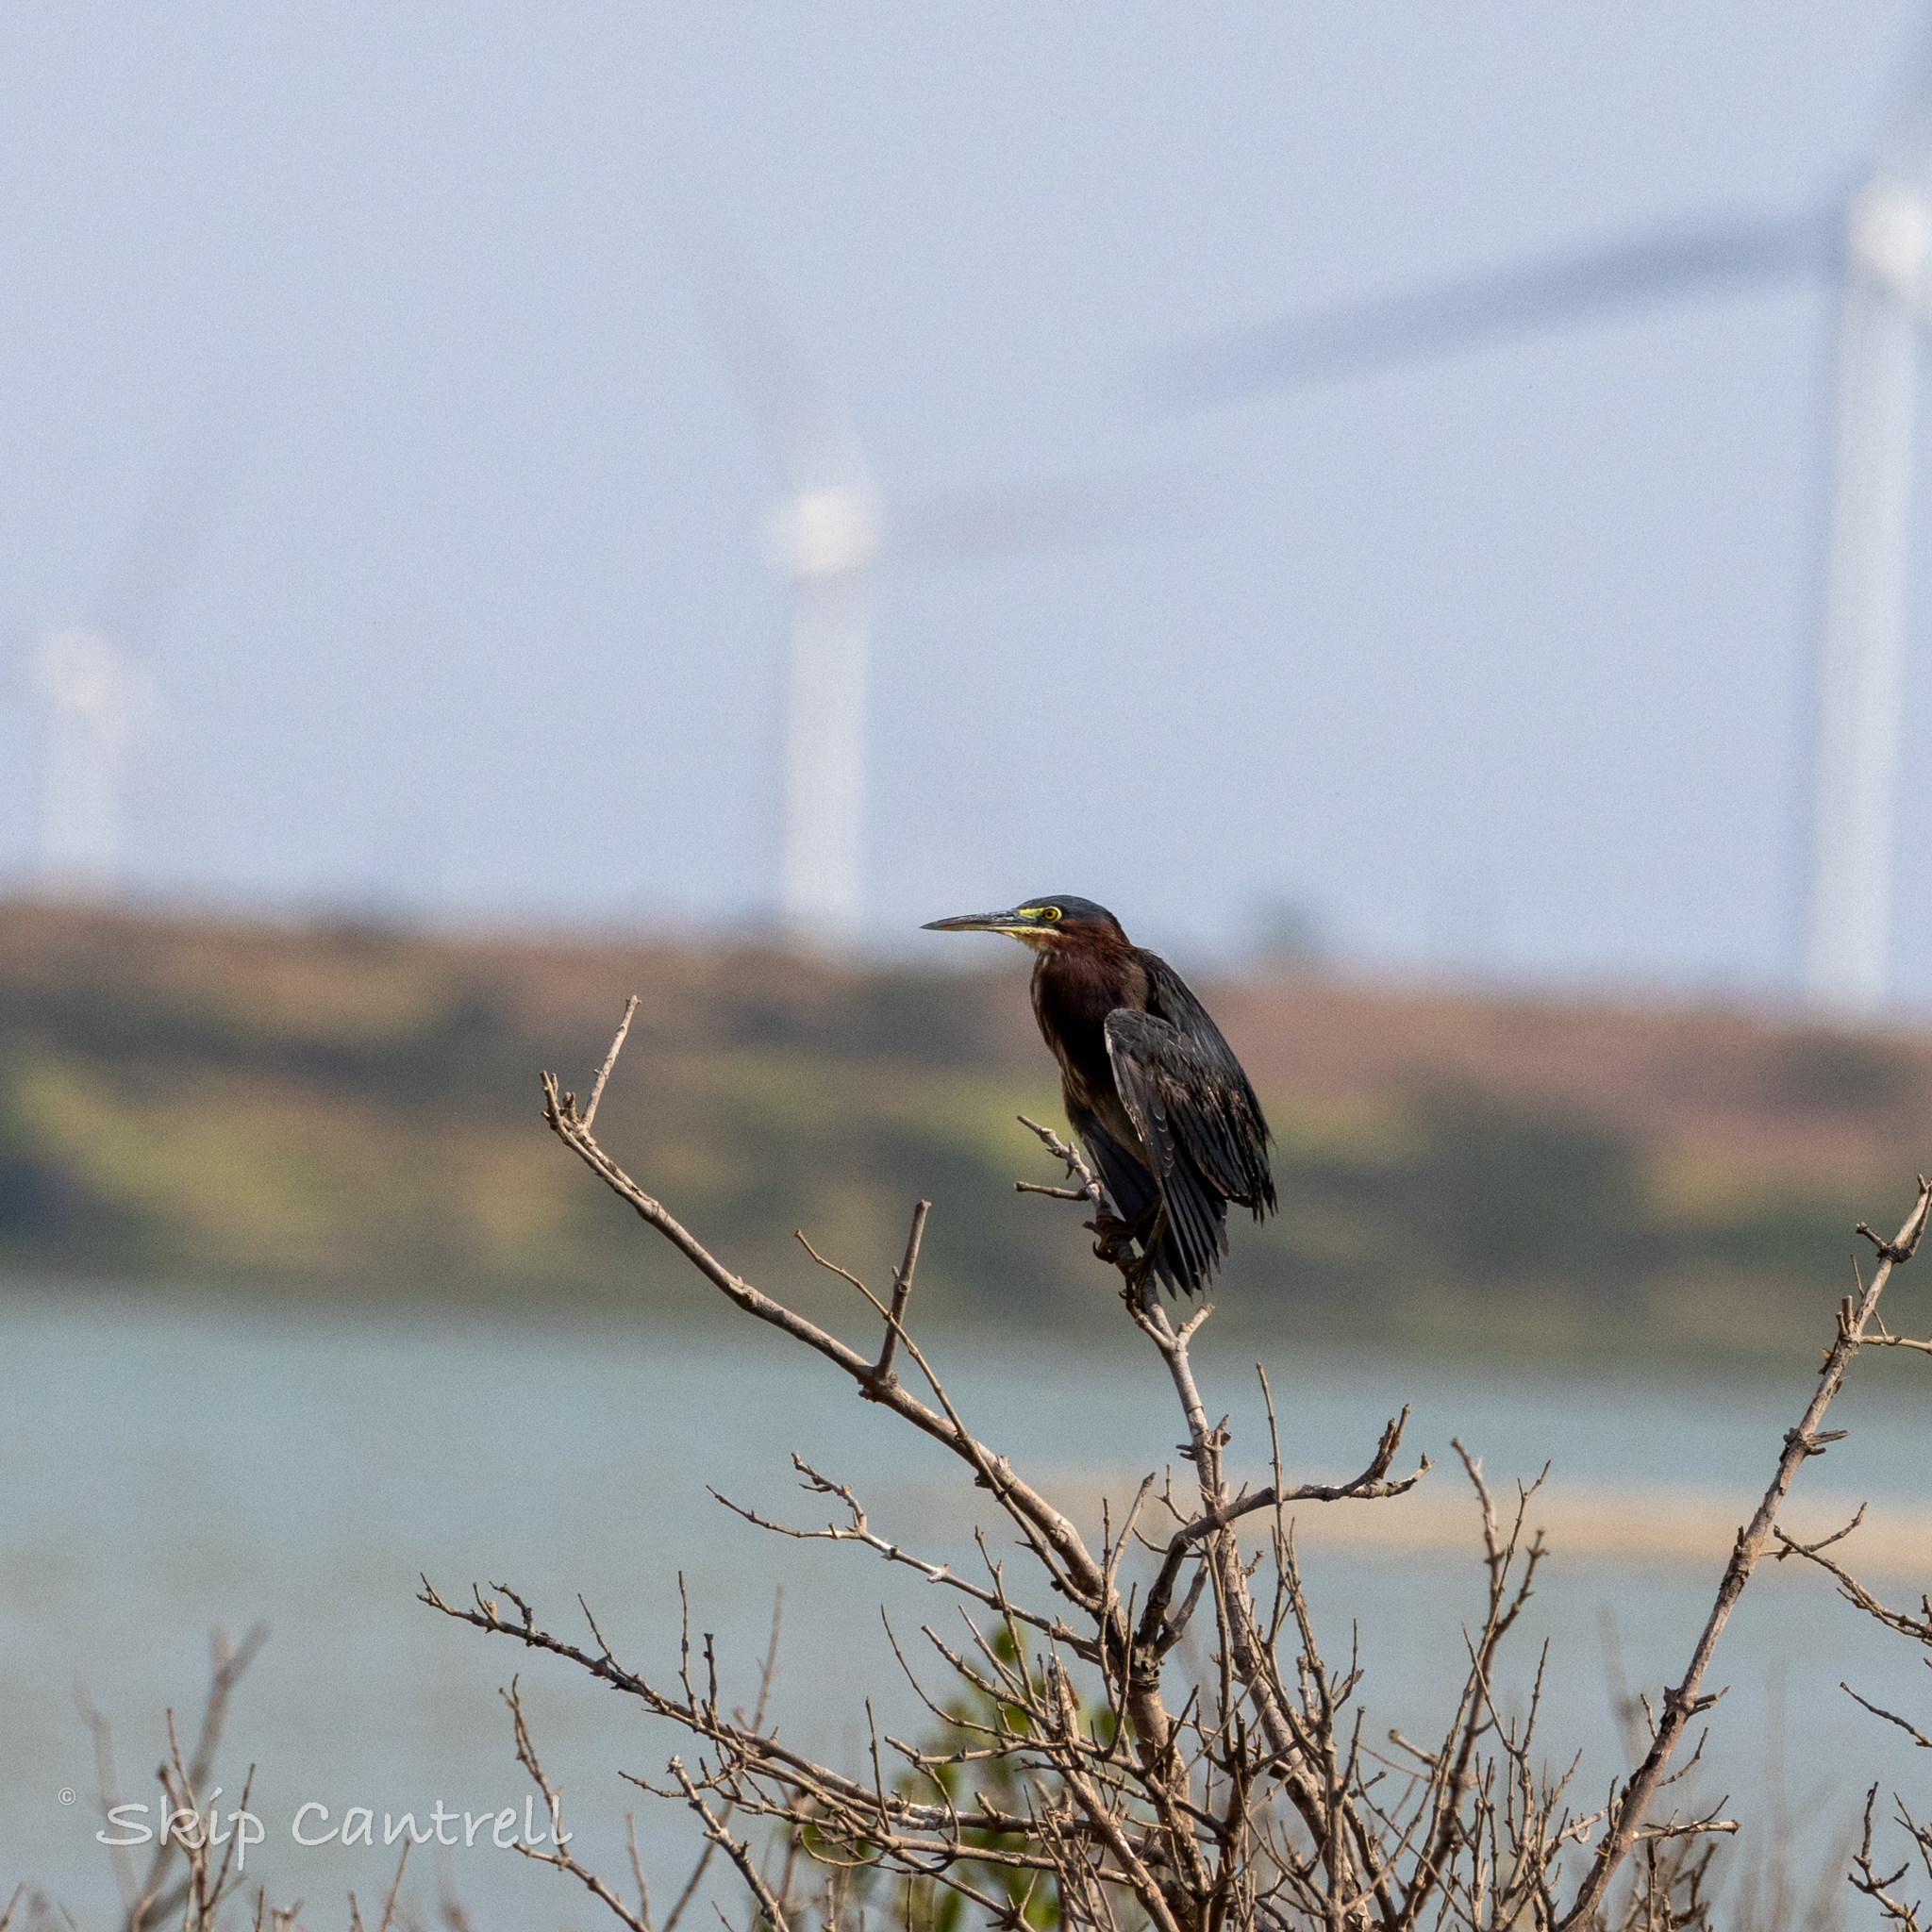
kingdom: Animalia
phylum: Chordata
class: Aves
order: Pelecaniformes
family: Ardeidae
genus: Butorides
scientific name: Butorides virescens
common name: Green heron
